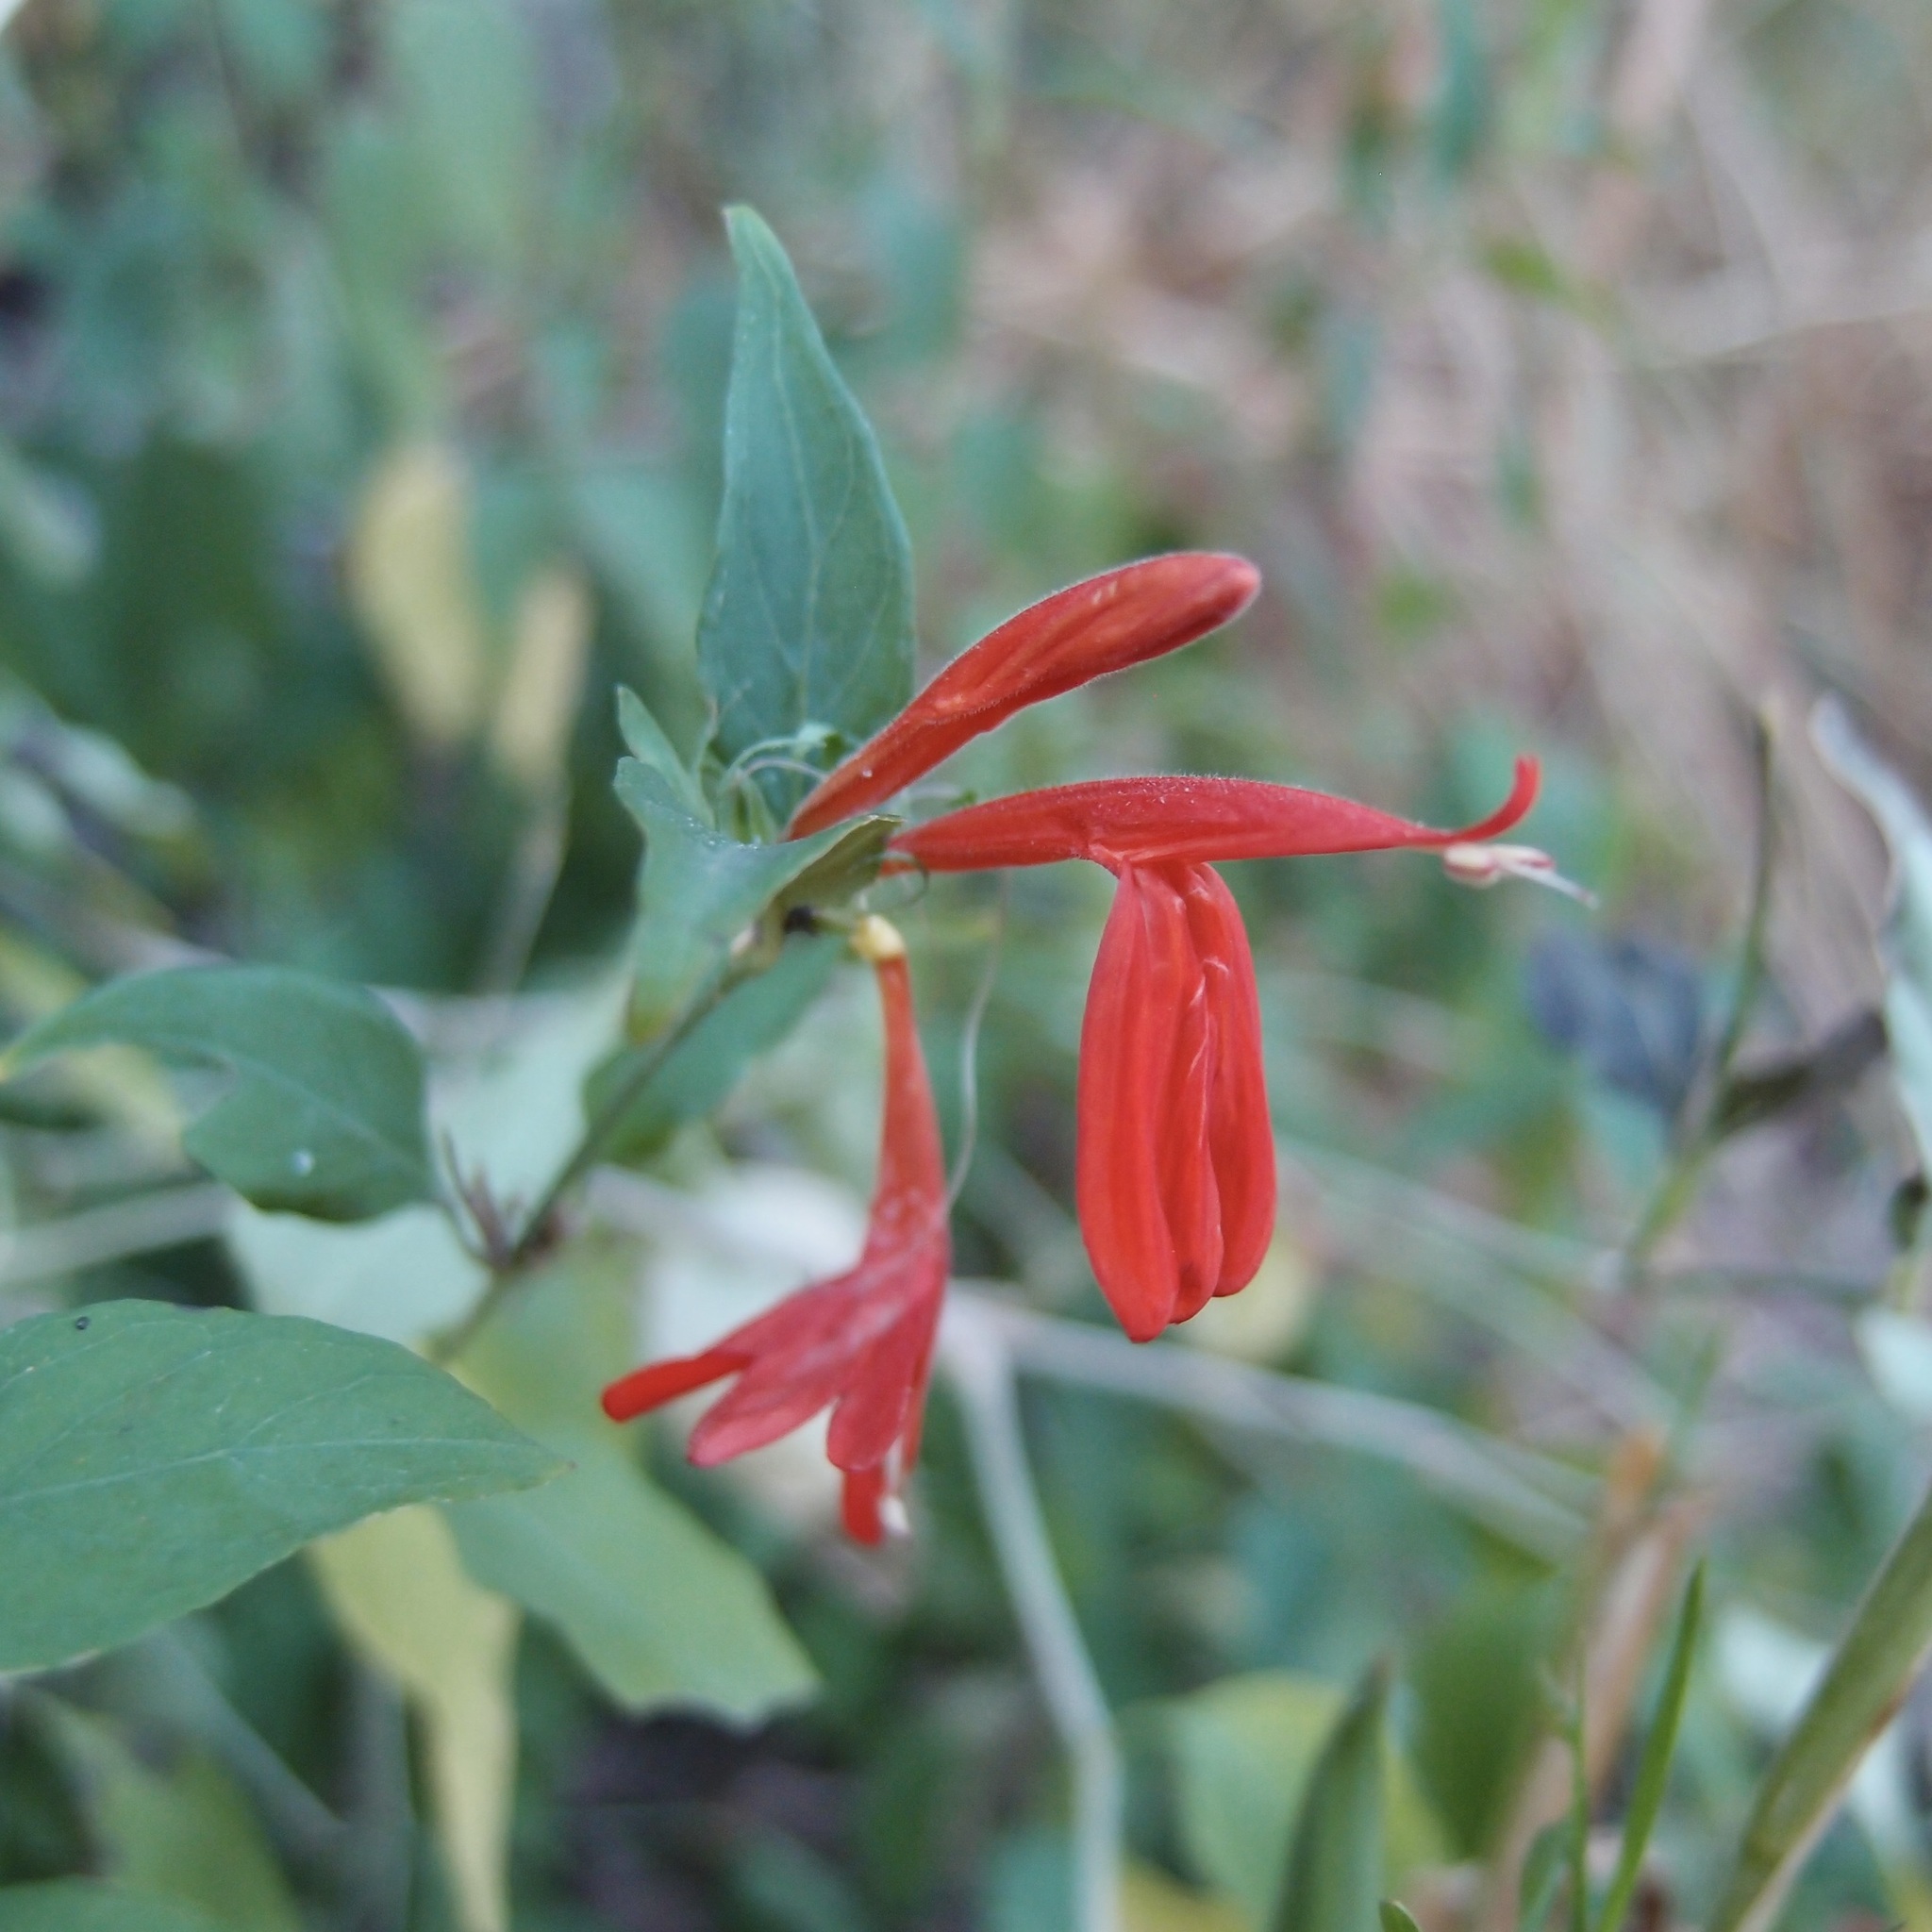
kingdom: Plantae
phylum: Tracheophyta
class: Magnoliopsida
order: Lamiales
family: Acanthaceae
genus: Dianthera
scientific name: Dianthera candicans
